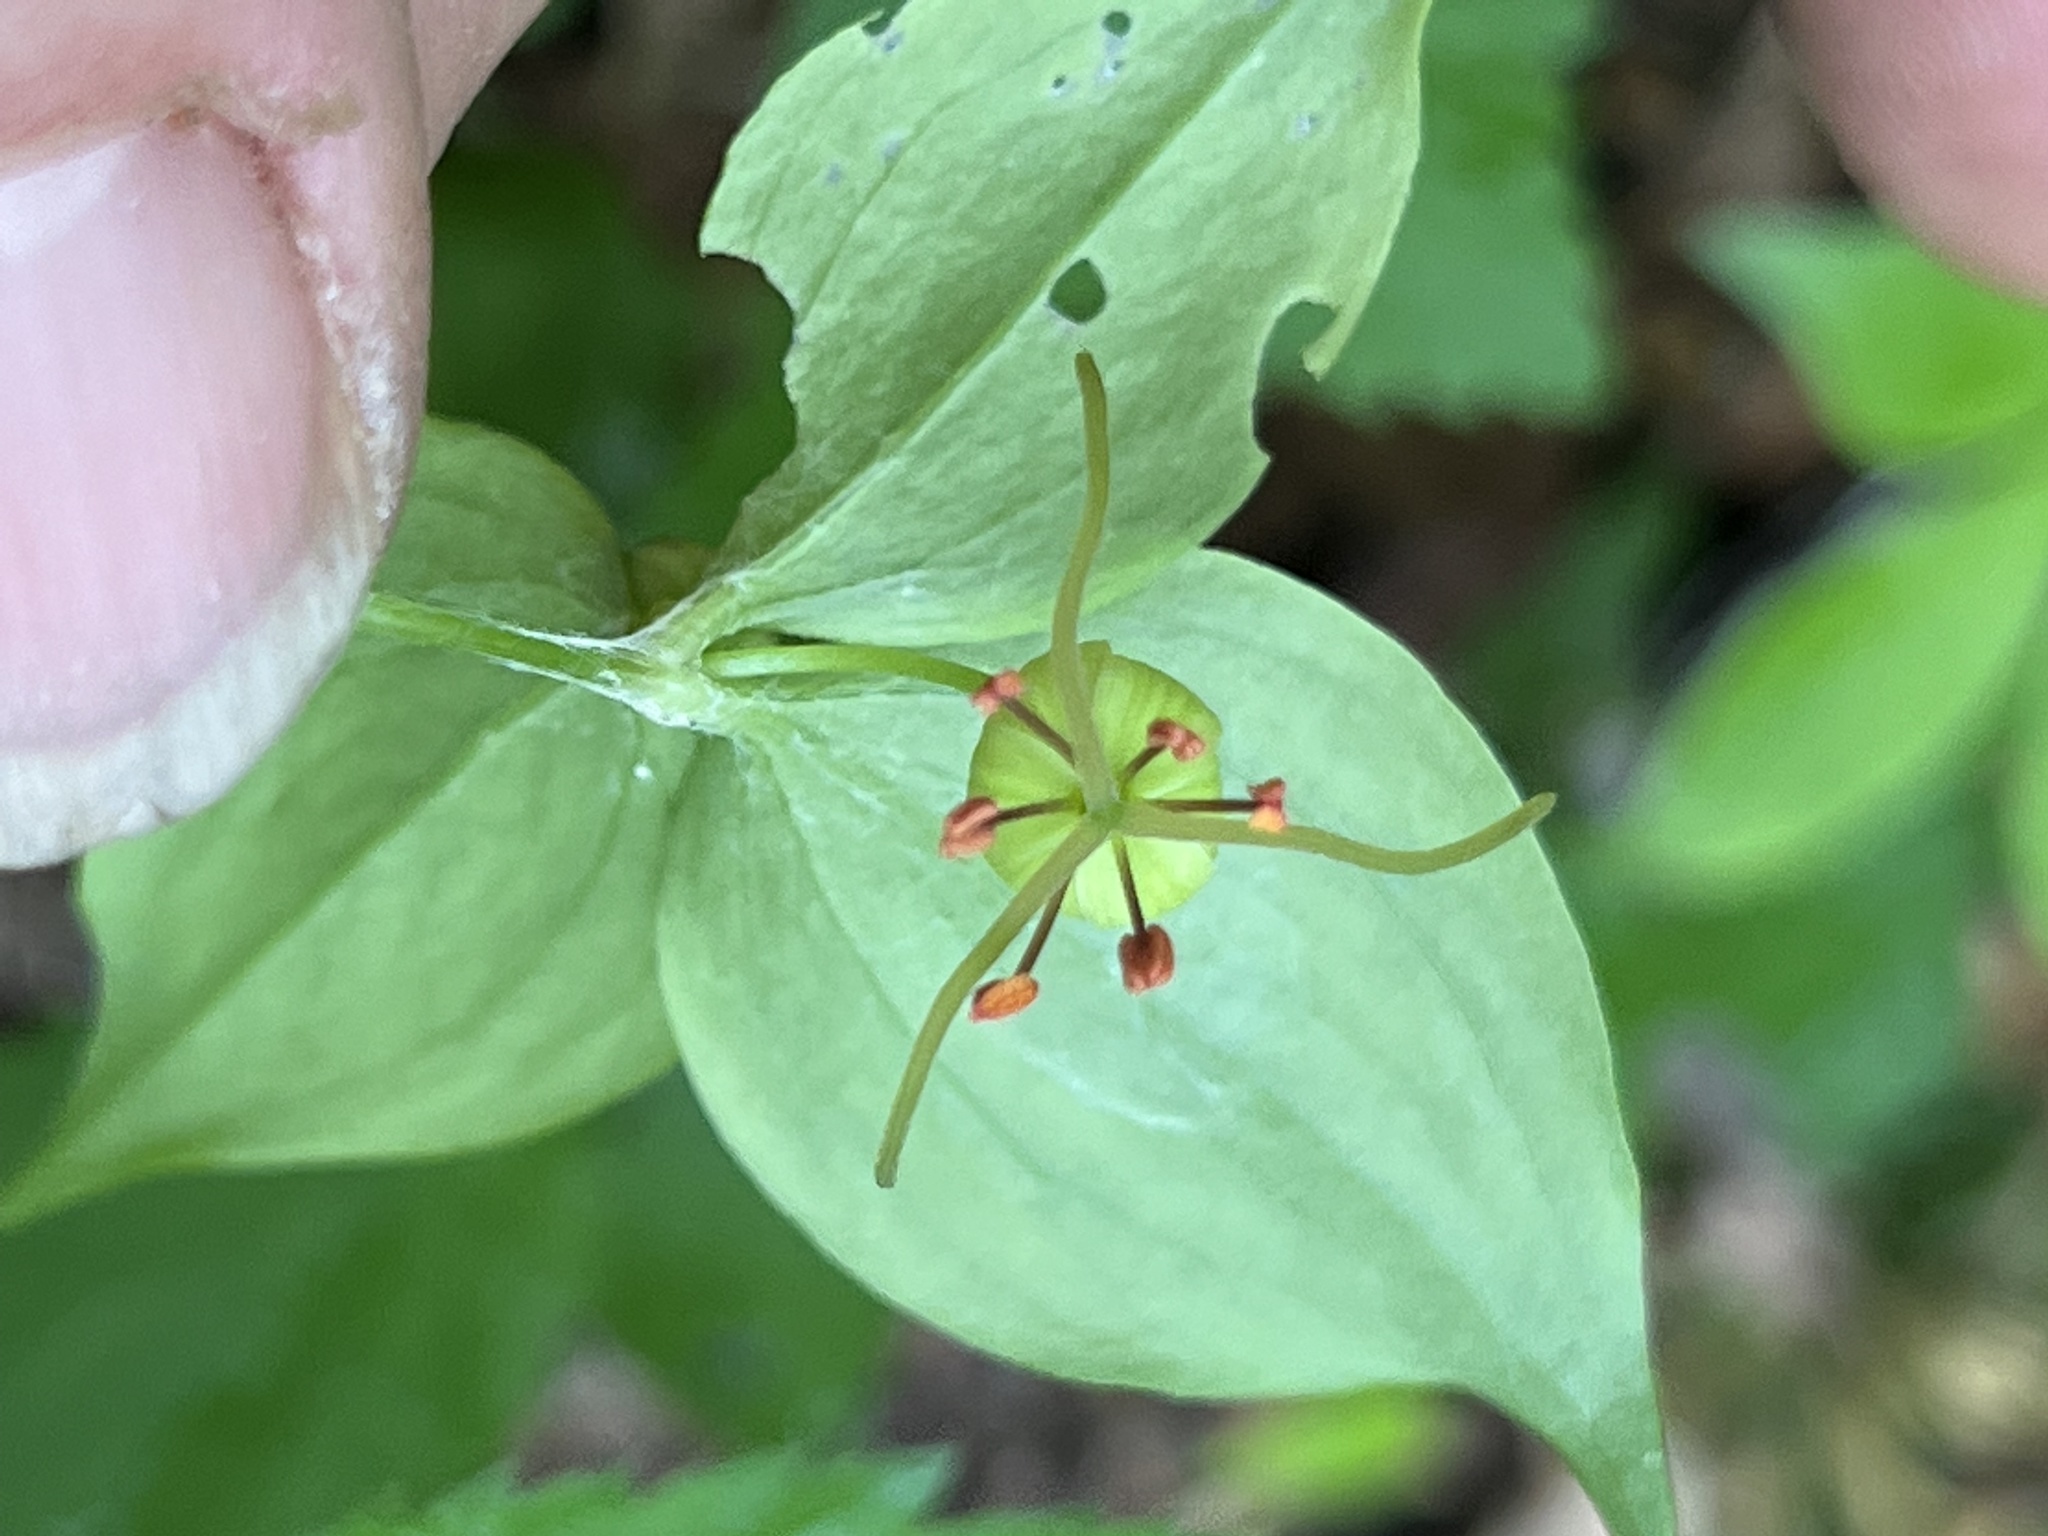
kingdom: Plantae
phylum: Tracheophyta
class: Liliopsida
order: Liliales
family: Liliaceae
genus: Medeola
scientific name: Medeola virginiana
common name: Indian cucumber-root
